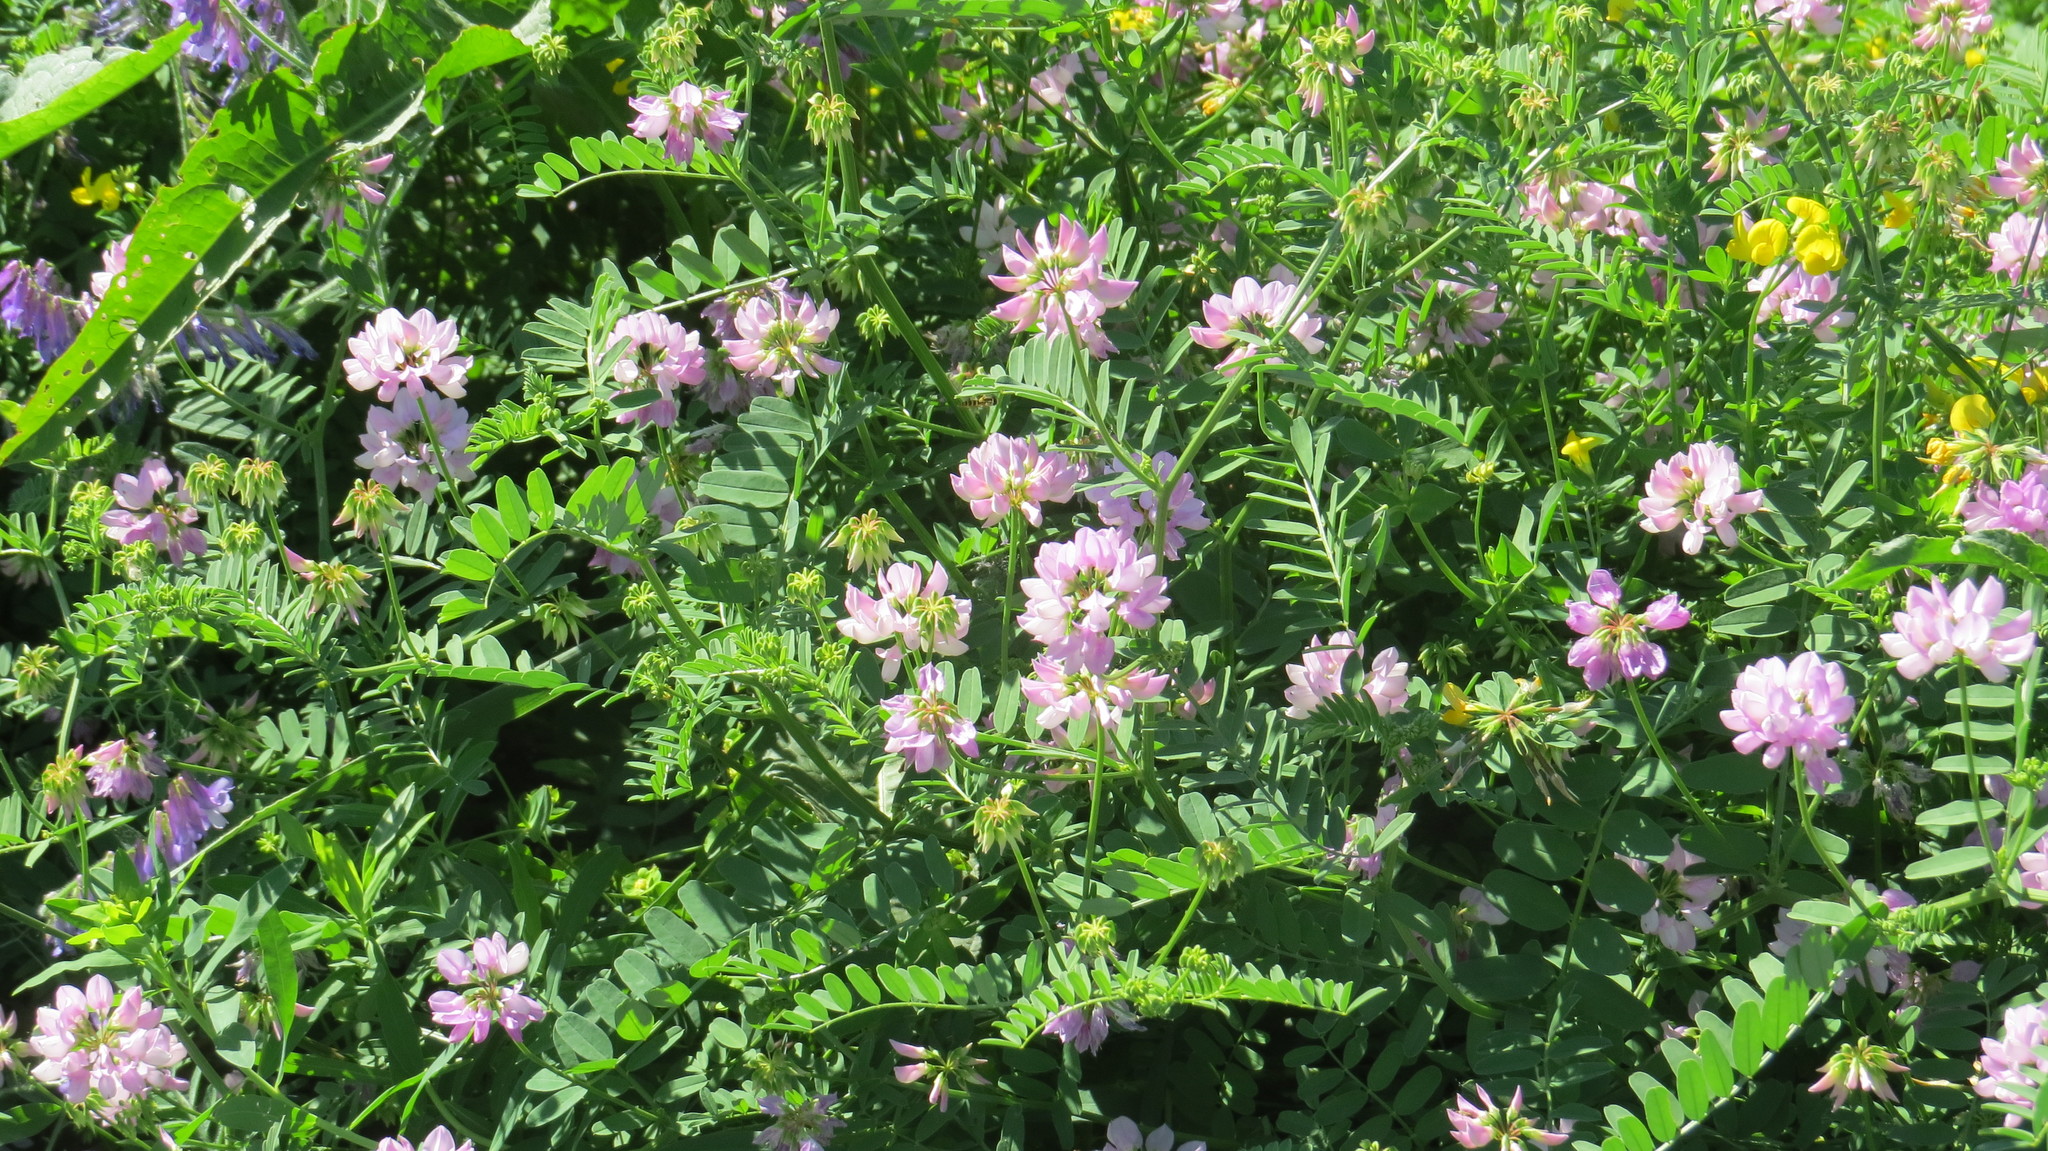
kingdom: Plantae
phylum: Tracheophyta
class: Magnoliopsida
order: Fabales
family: Fabaceae
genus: Coronilla
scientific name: Coronilla varia
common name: Crownvetch
